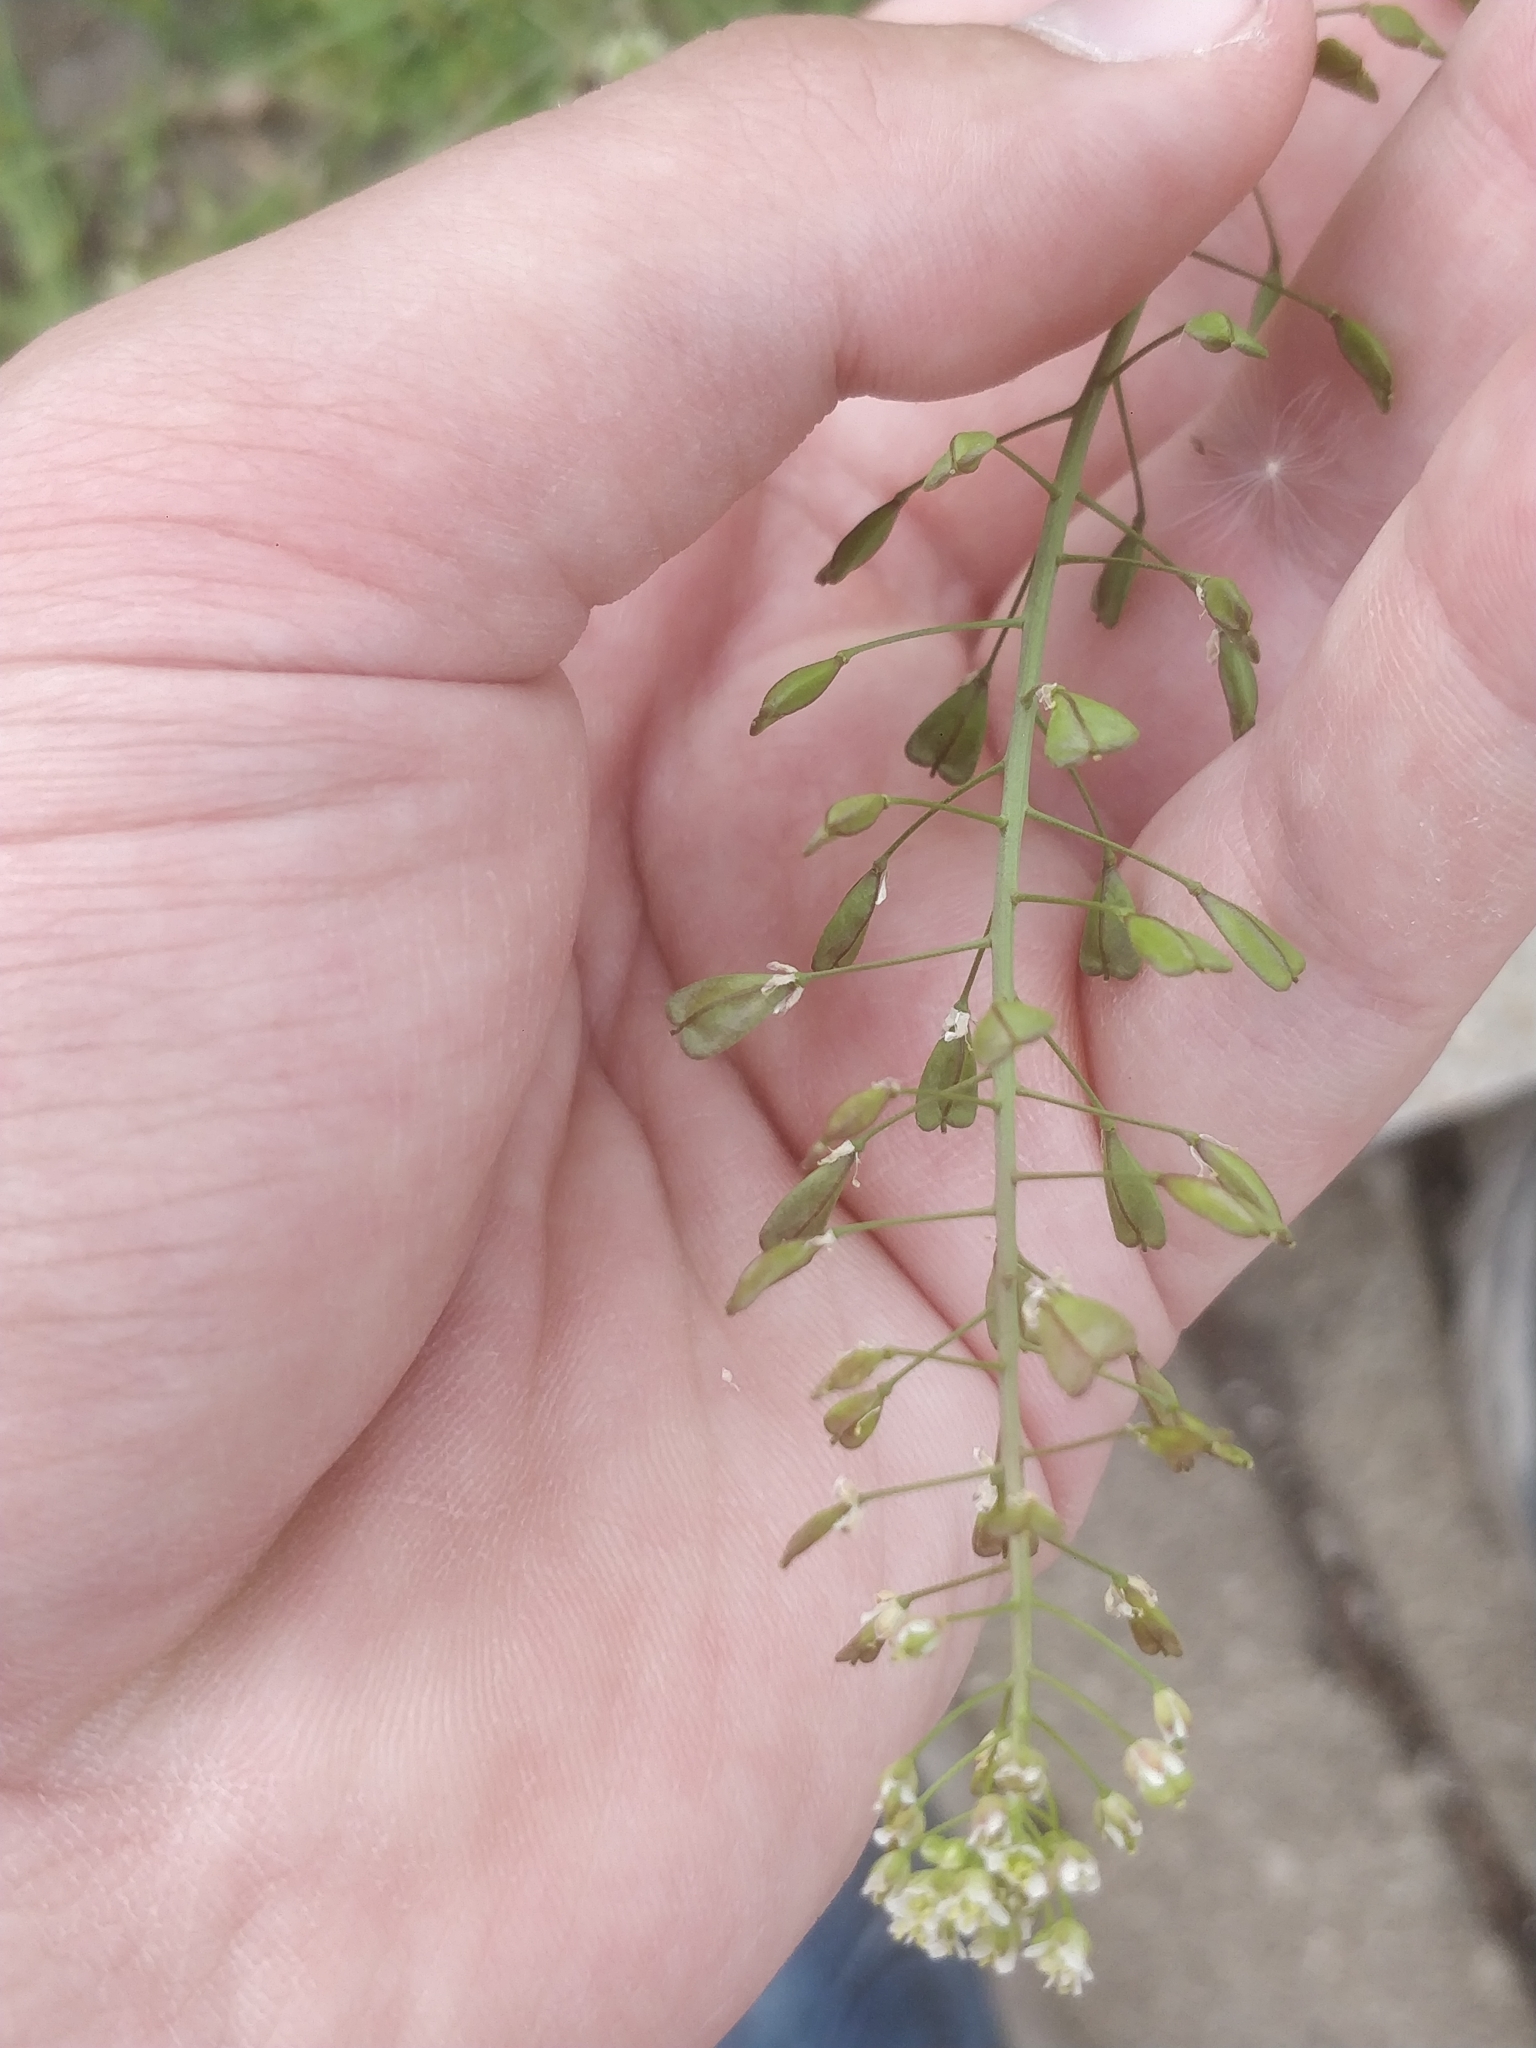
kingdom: Plantae
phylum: Tracheophyta
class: Magnoliopsida
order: Brassicales
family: Brassicaceae
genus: Capsella
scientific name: Capsella bursa-pastoris
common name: Shepherd's purse
